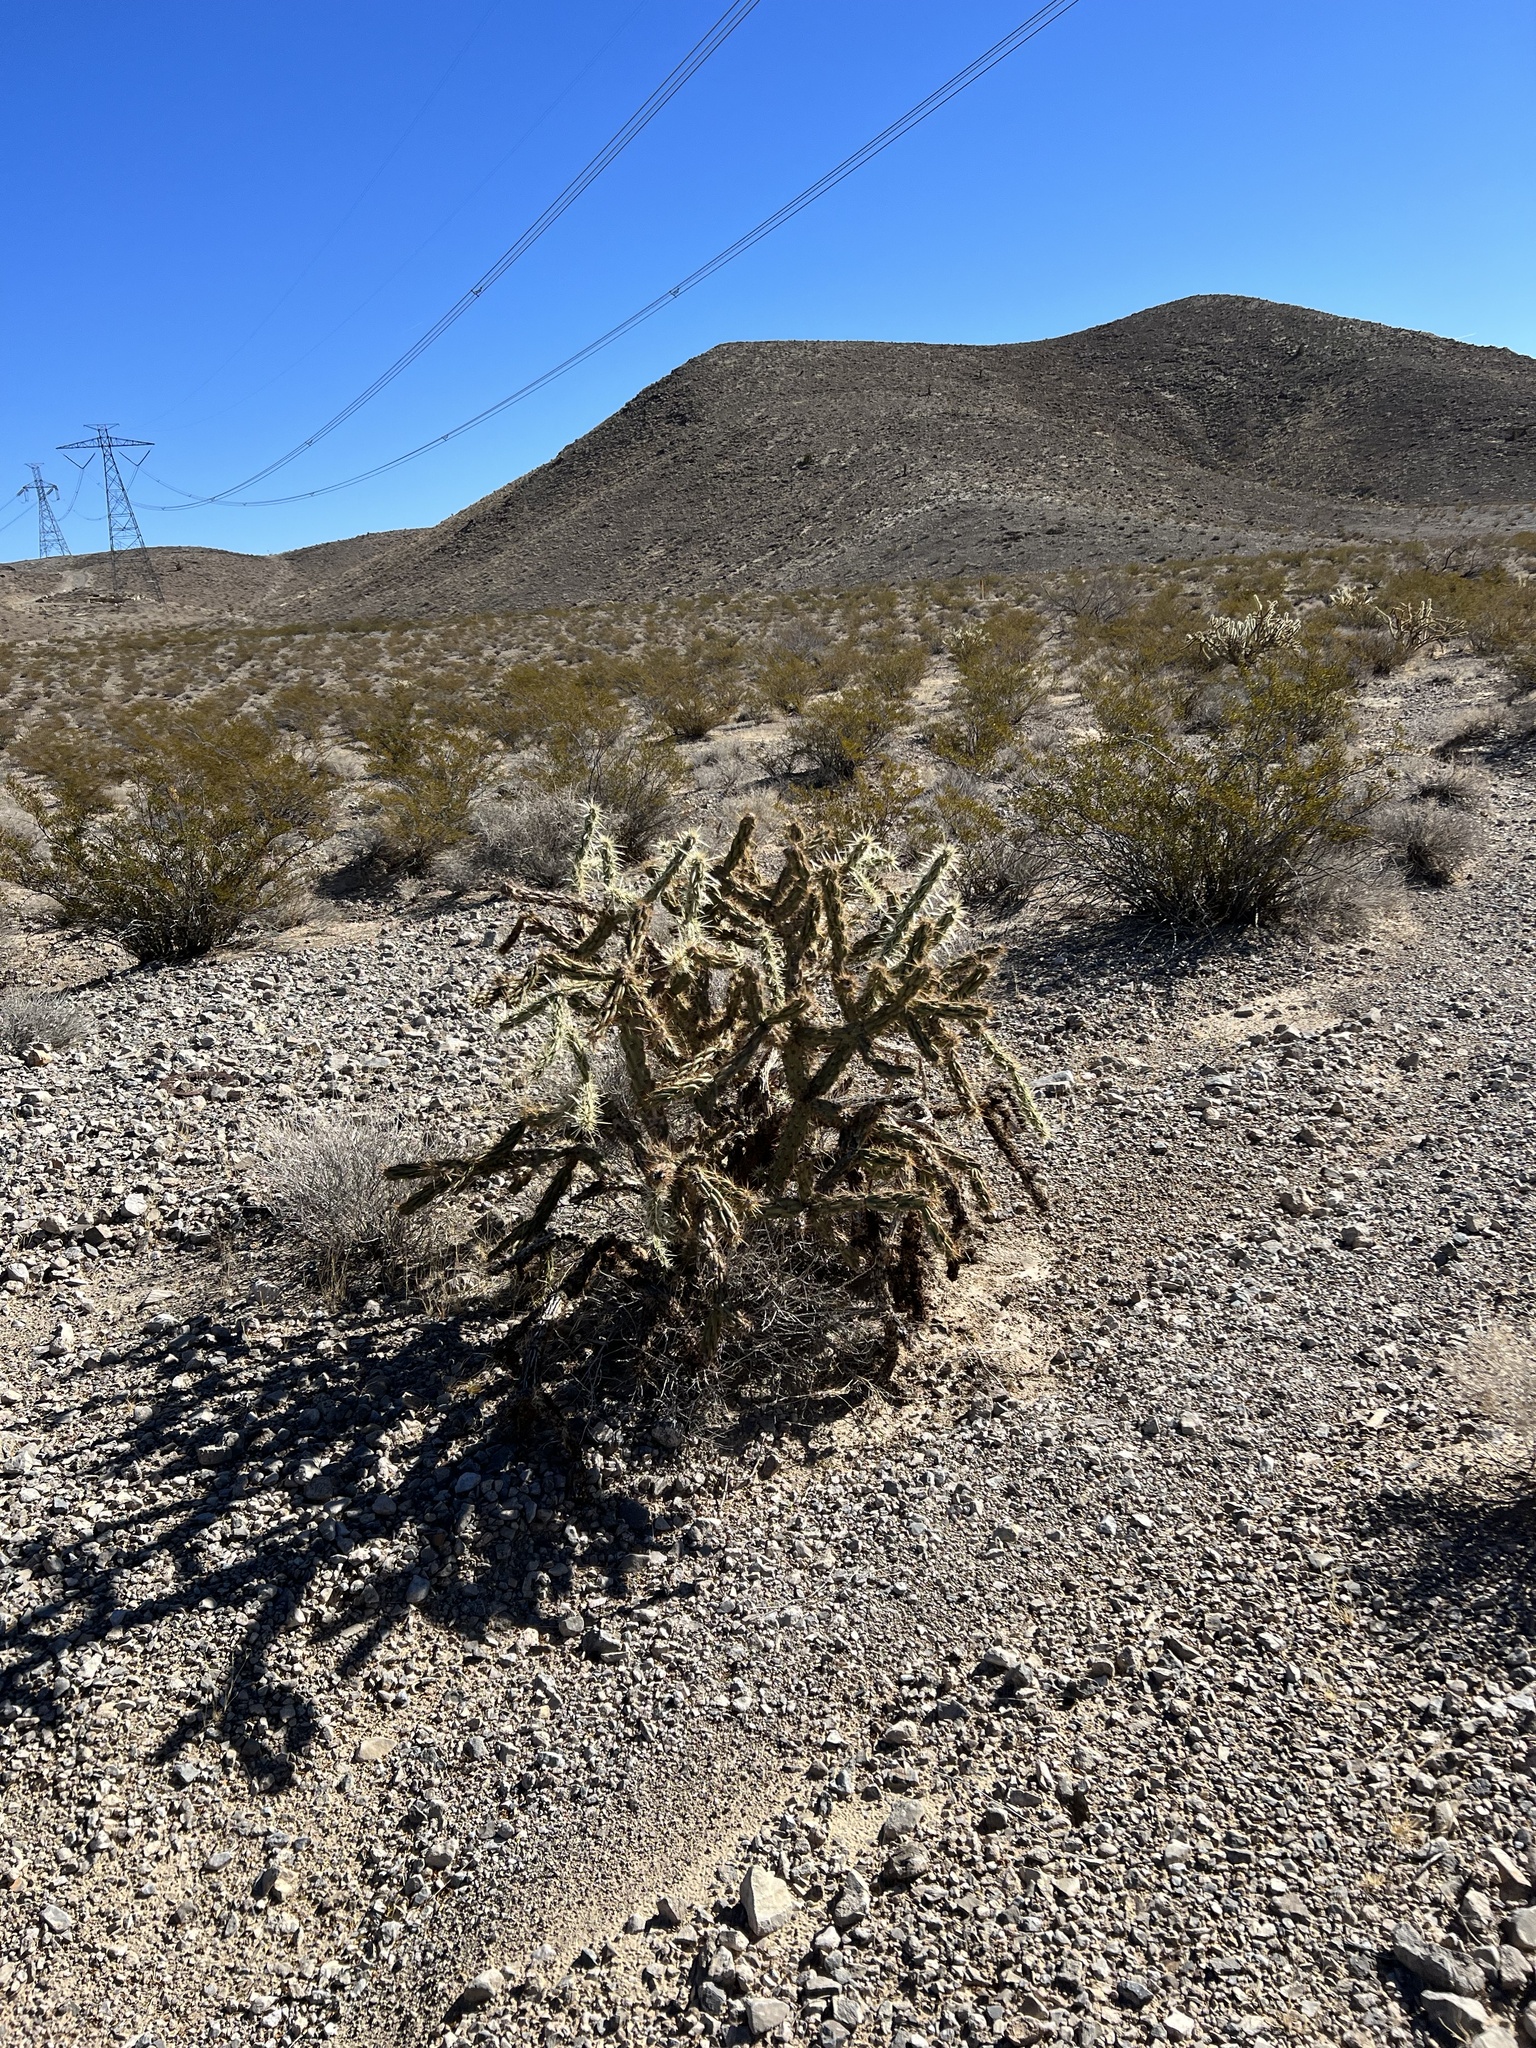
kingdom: Plantae
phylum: Tracheophyta
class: Magnoliopsida
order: Caryophyllales
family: Cactaceae
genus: Cylindropuntia
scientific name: Cylindropuntia acanthocarpa
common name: Buckhorn cholla
